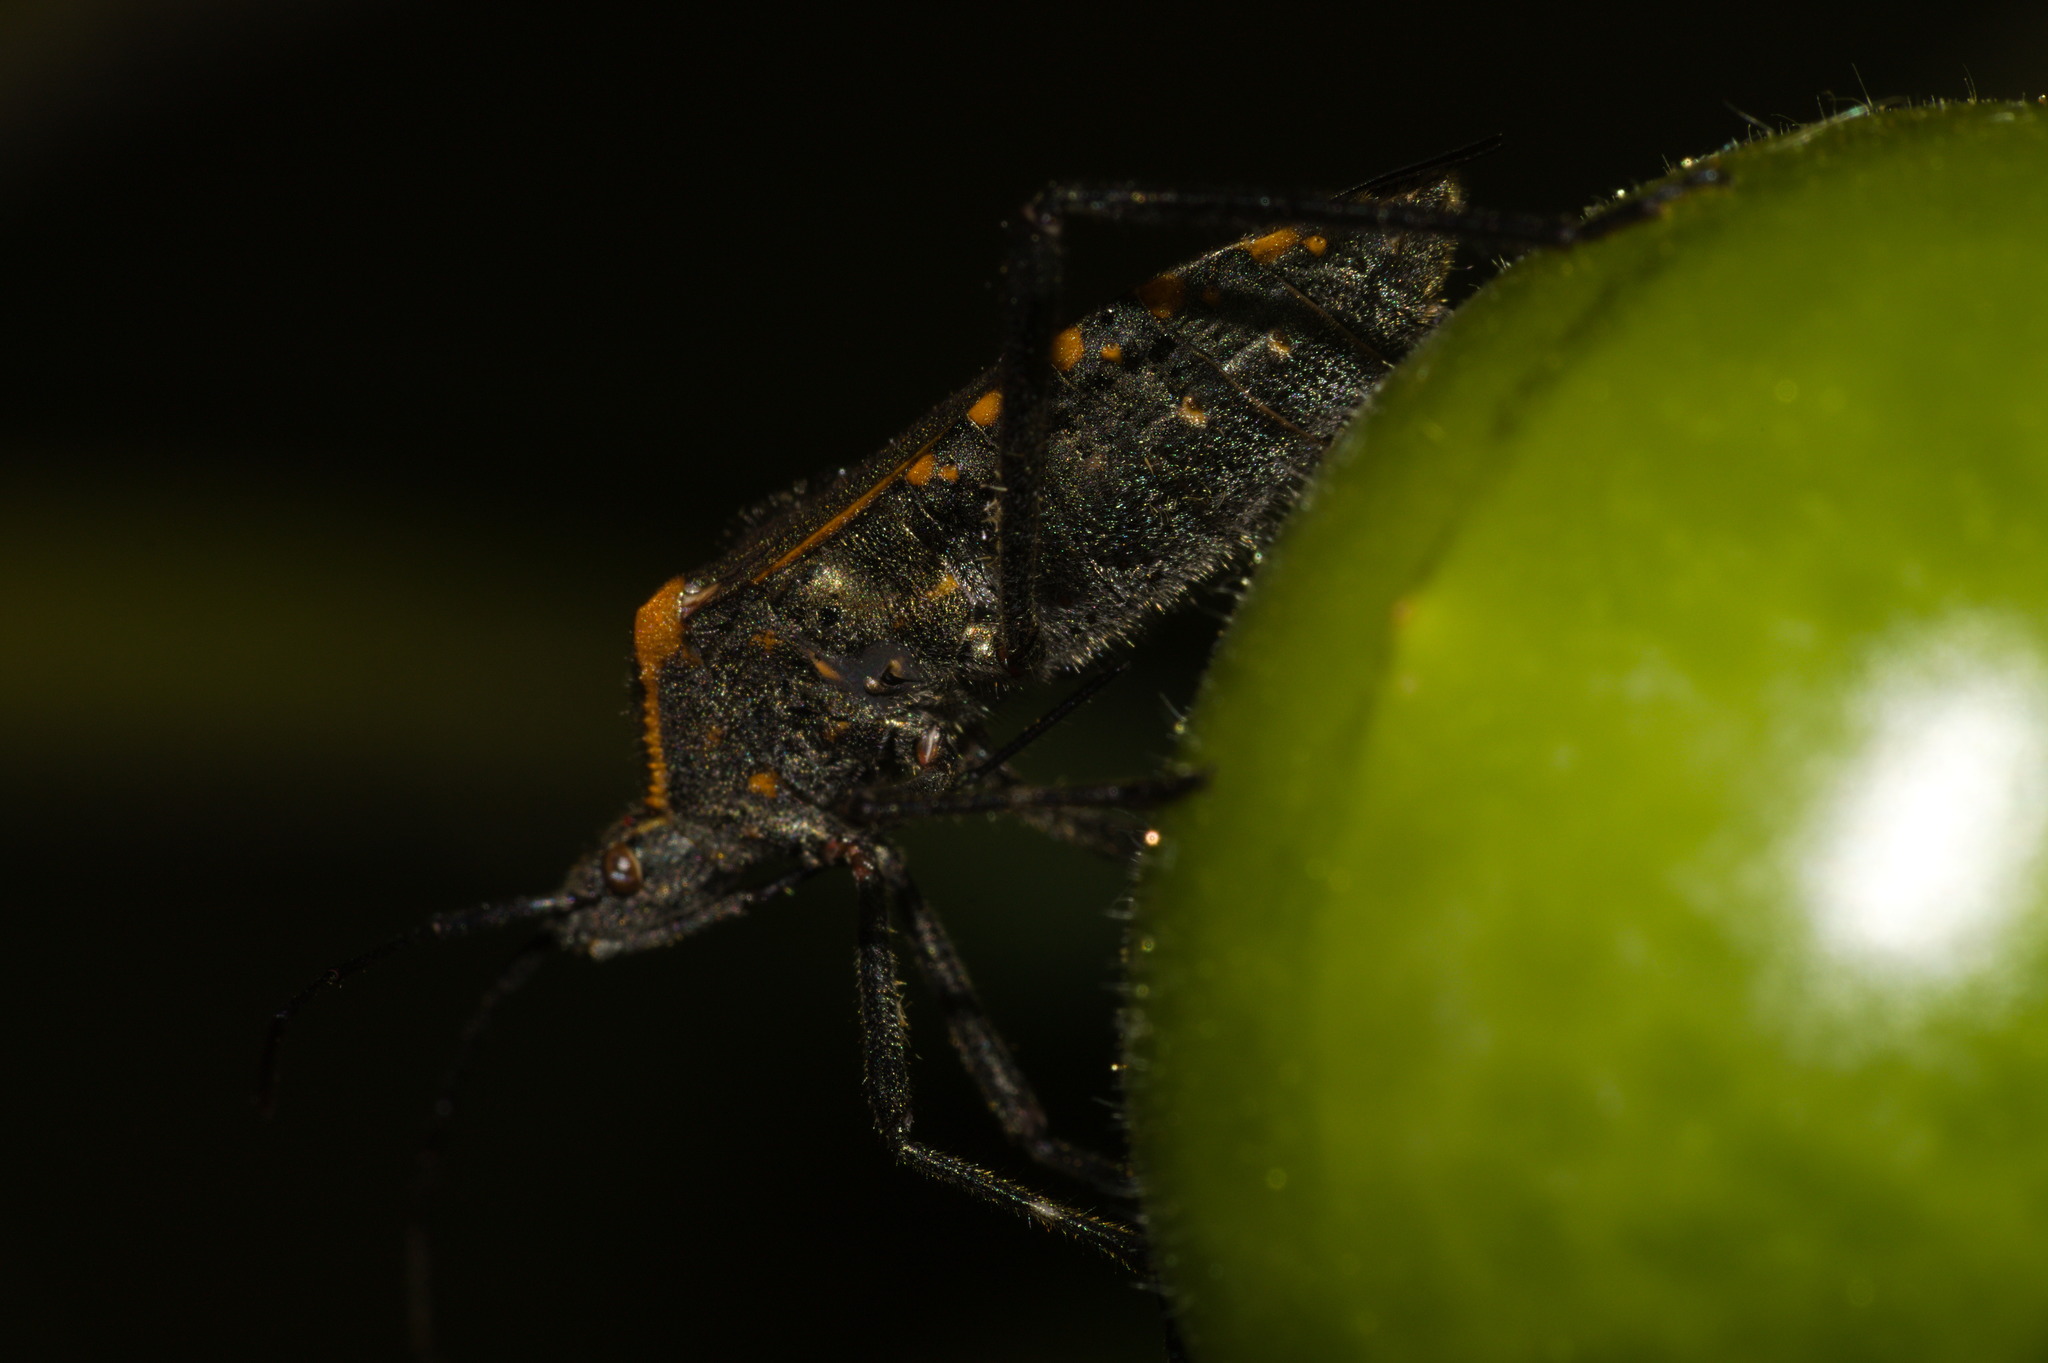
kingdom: Animalia
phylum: Arthropoda
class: Insecta
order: Hemiptera
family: Coreidae
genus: Phthiacnemia
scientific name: Phthiacnemia picta
